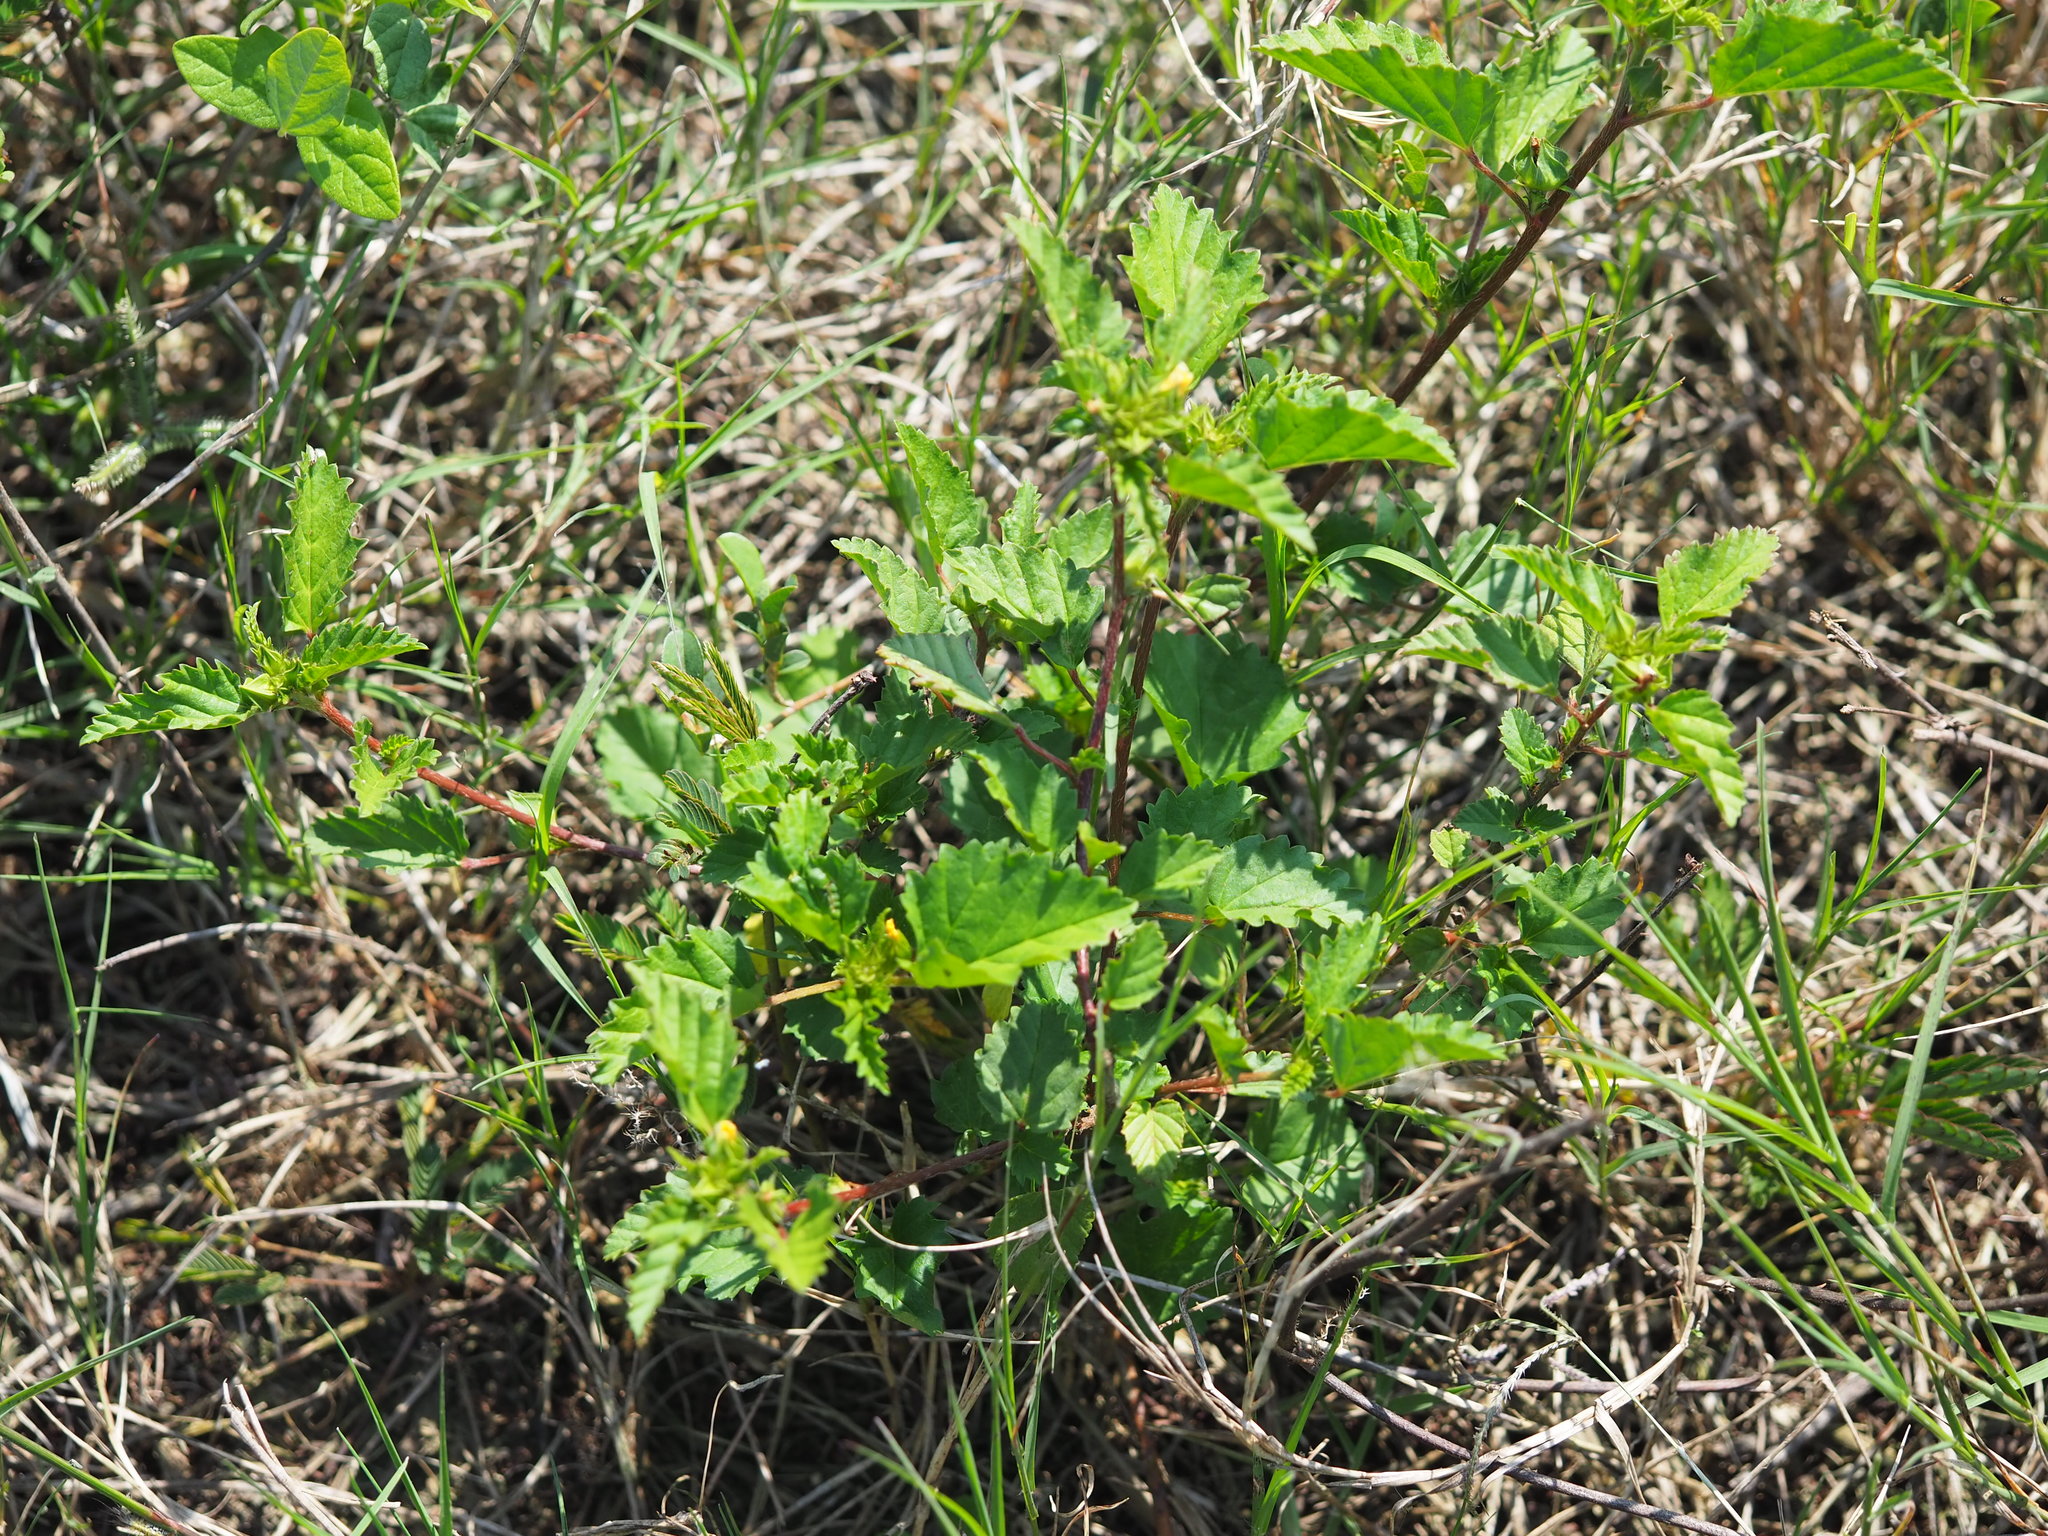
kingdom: Plantae
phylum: Tracheophyta
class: Magnoliopsida
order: Malvales
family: Malvaceae
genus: Malvastrum
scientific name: Malvastrum coromandelianum
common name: Threelobe false mallow
